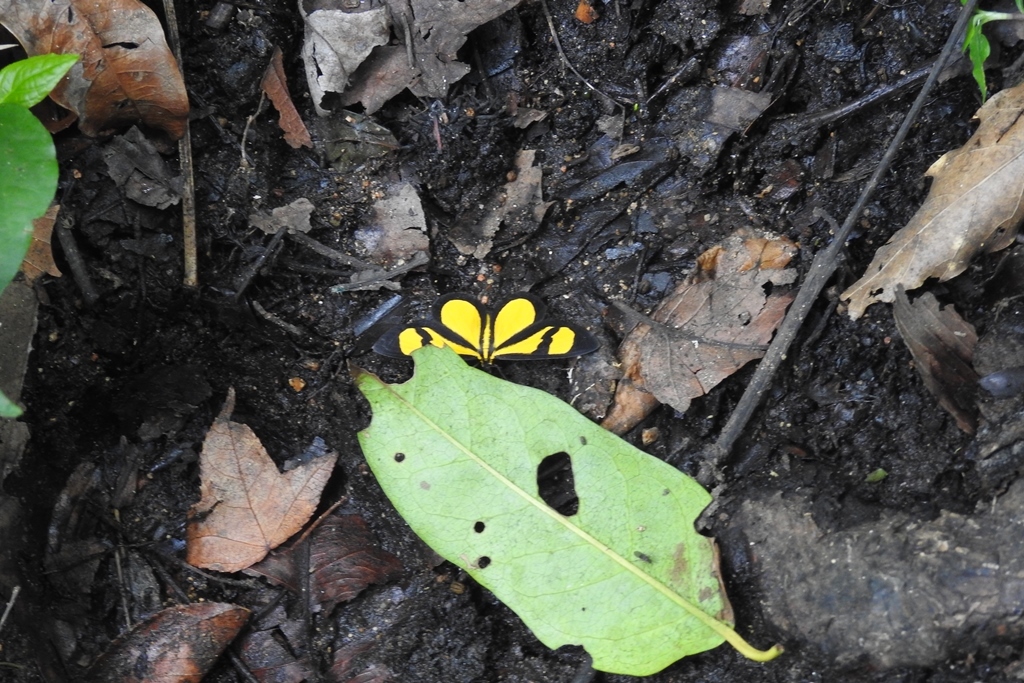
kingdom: Animalia
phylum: Arthropoda
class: Insecta
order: Lepidoptera
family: Geometridae
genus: Smicropus
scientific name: Smicropus laeta
